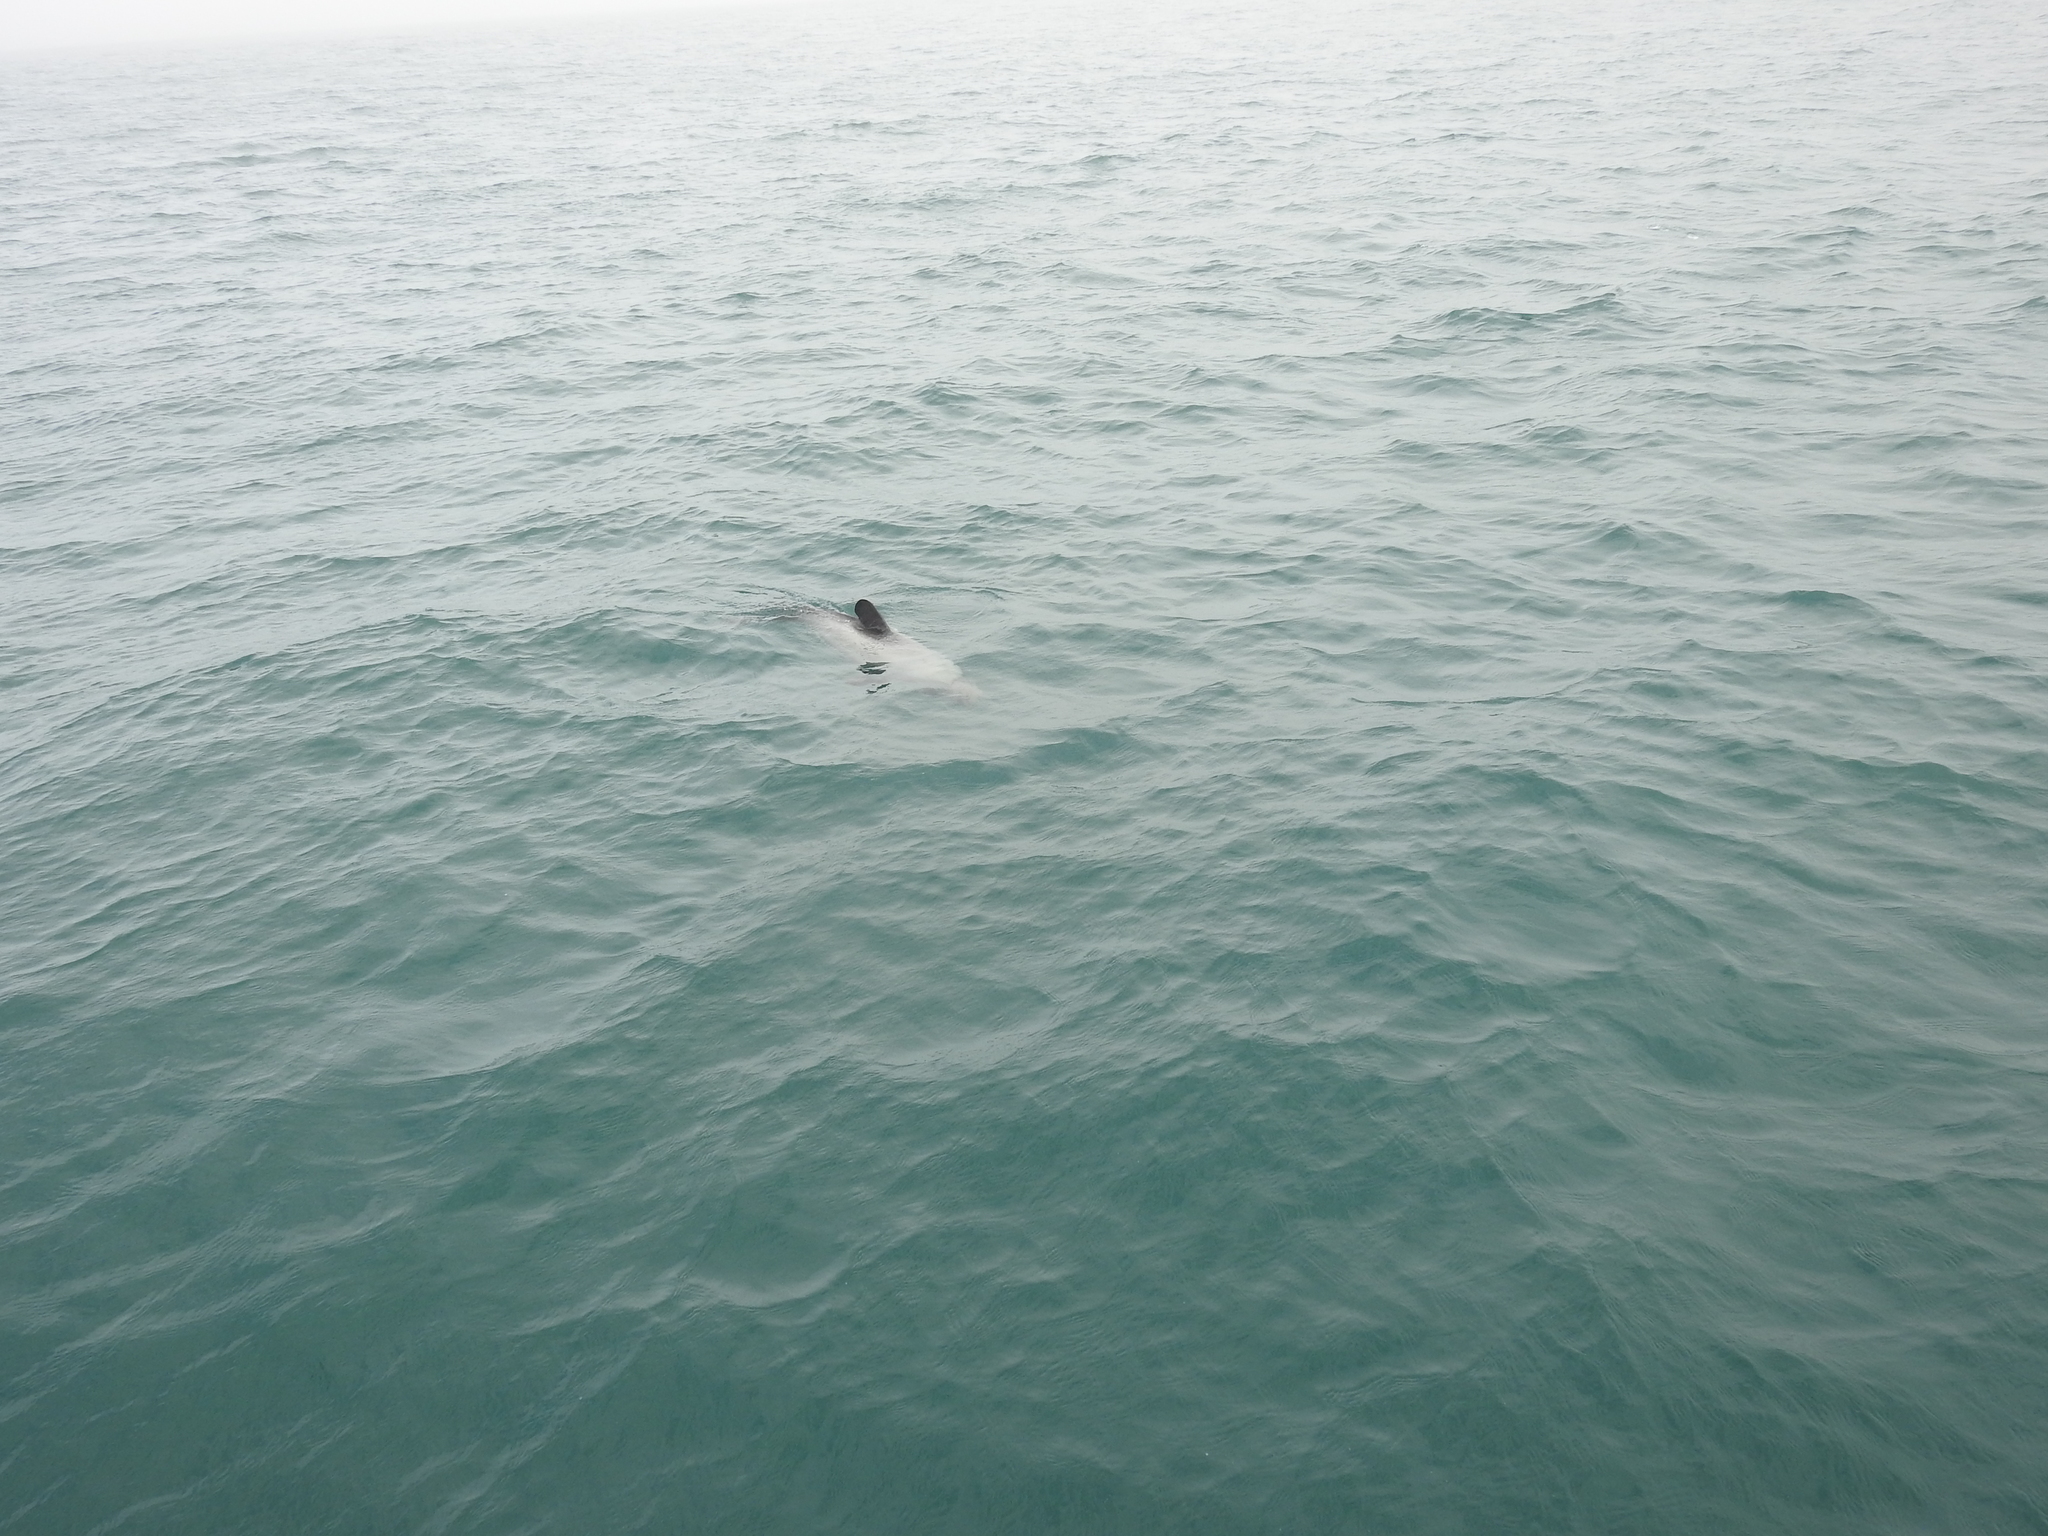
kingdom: Animalia
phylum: Chordata
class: Mammalia
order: Cetacea
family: Delphinidae
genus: Cephalorhynchus
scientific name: Cephalorhynchus hectori
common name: Hector's dolphin
